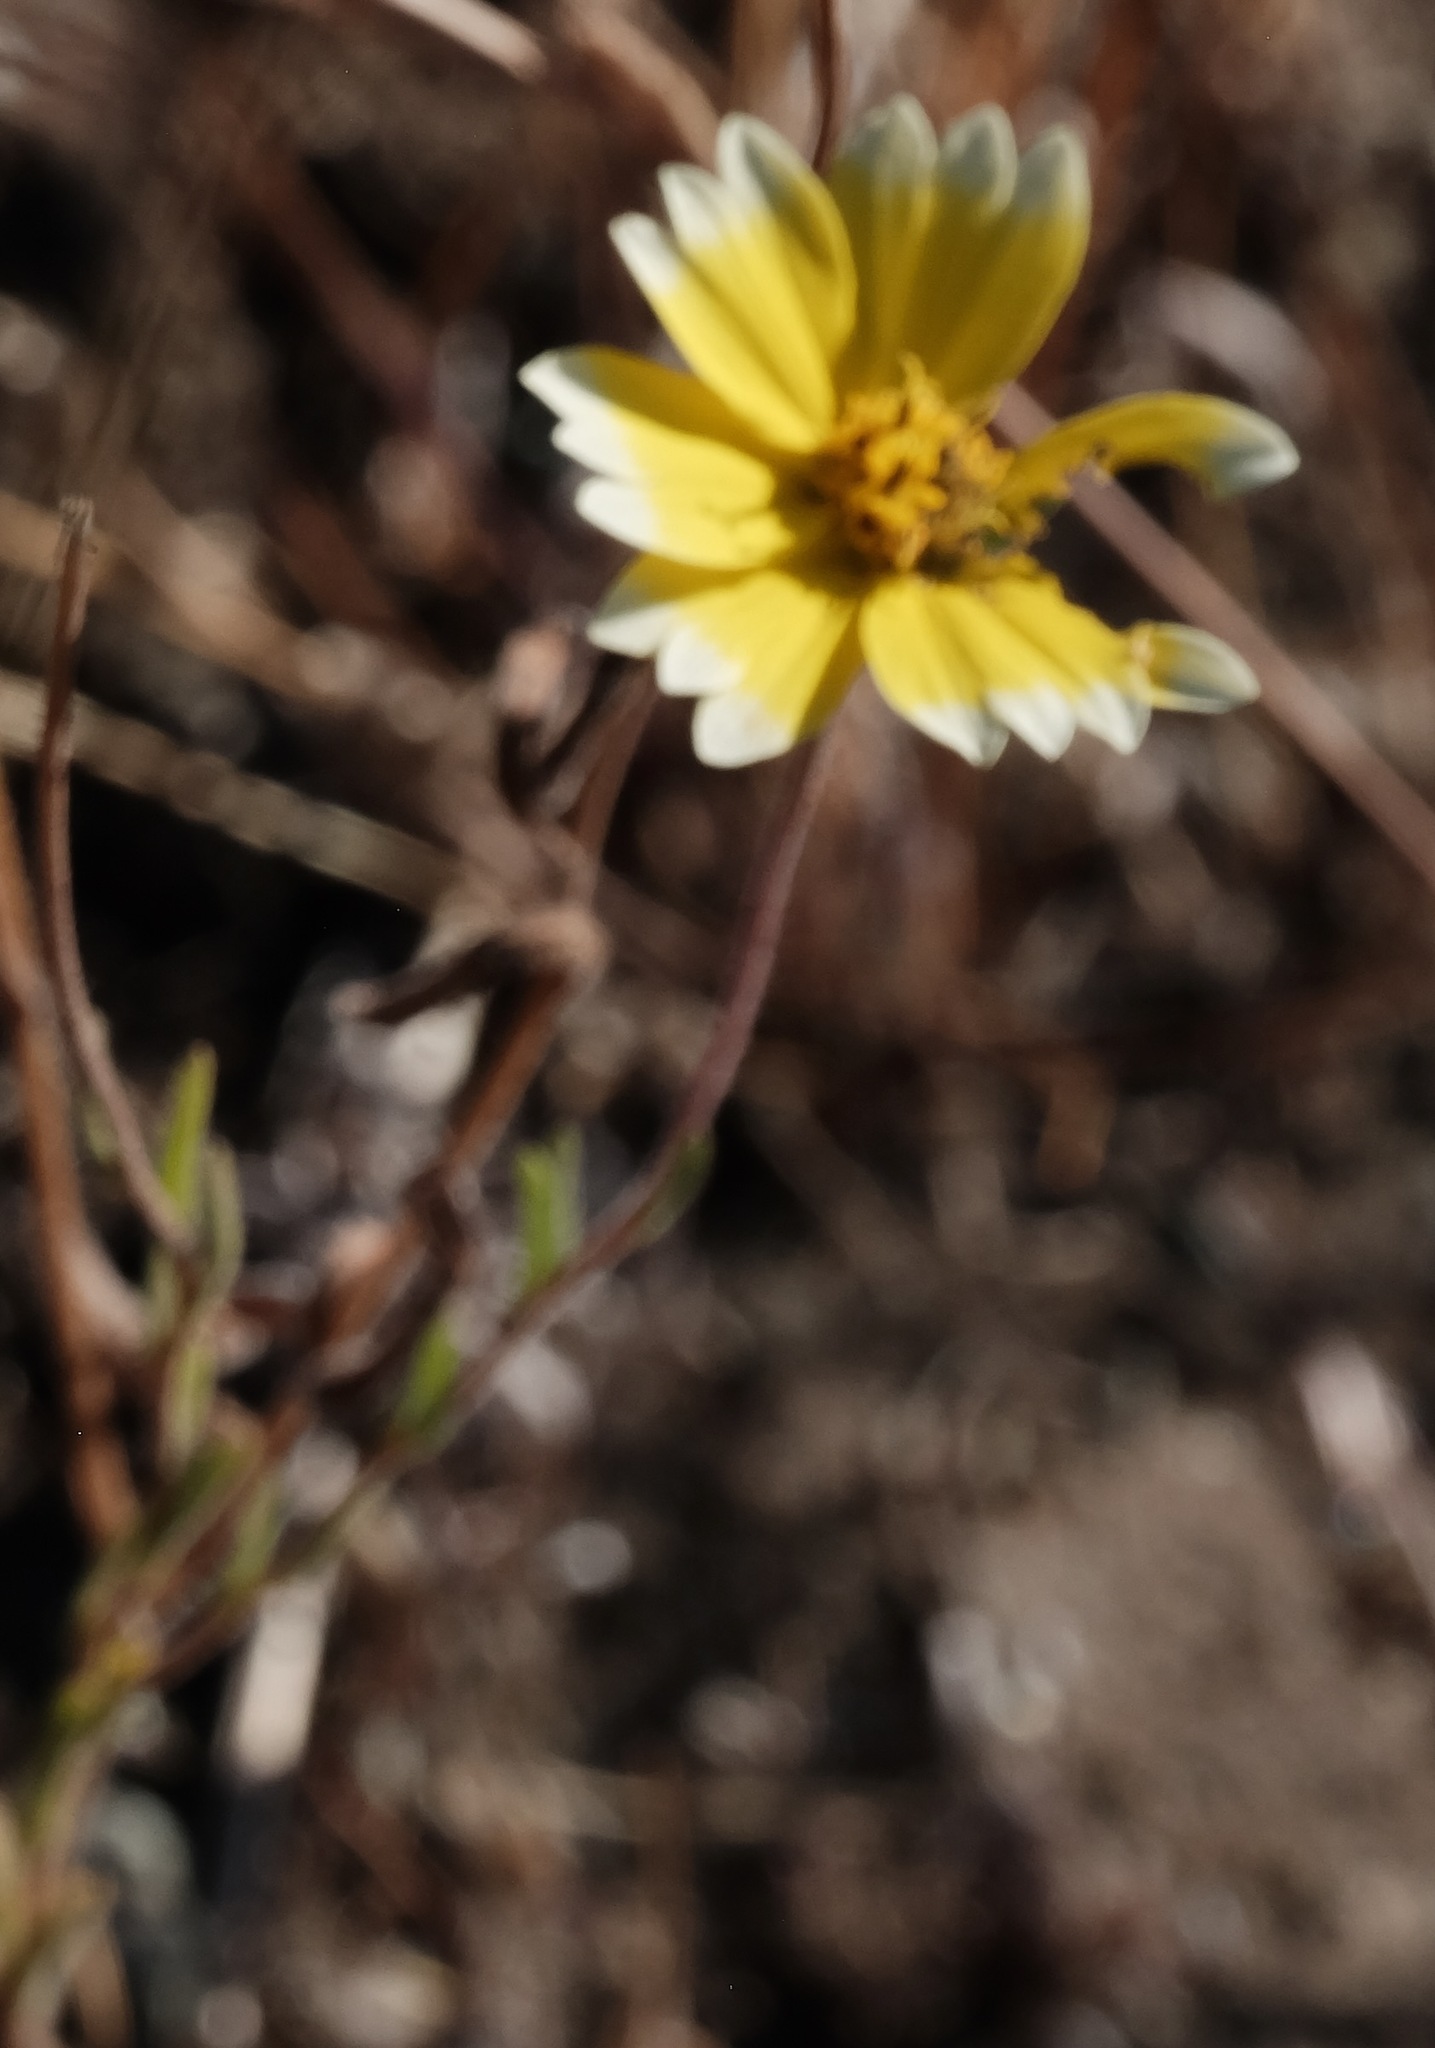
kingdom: Plantae
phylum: Tracheophyta
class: Magnoliopsida
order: Asterales
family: Asteraceae
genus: Layia
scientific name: Layia platyglossa
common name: Tidy-tips
